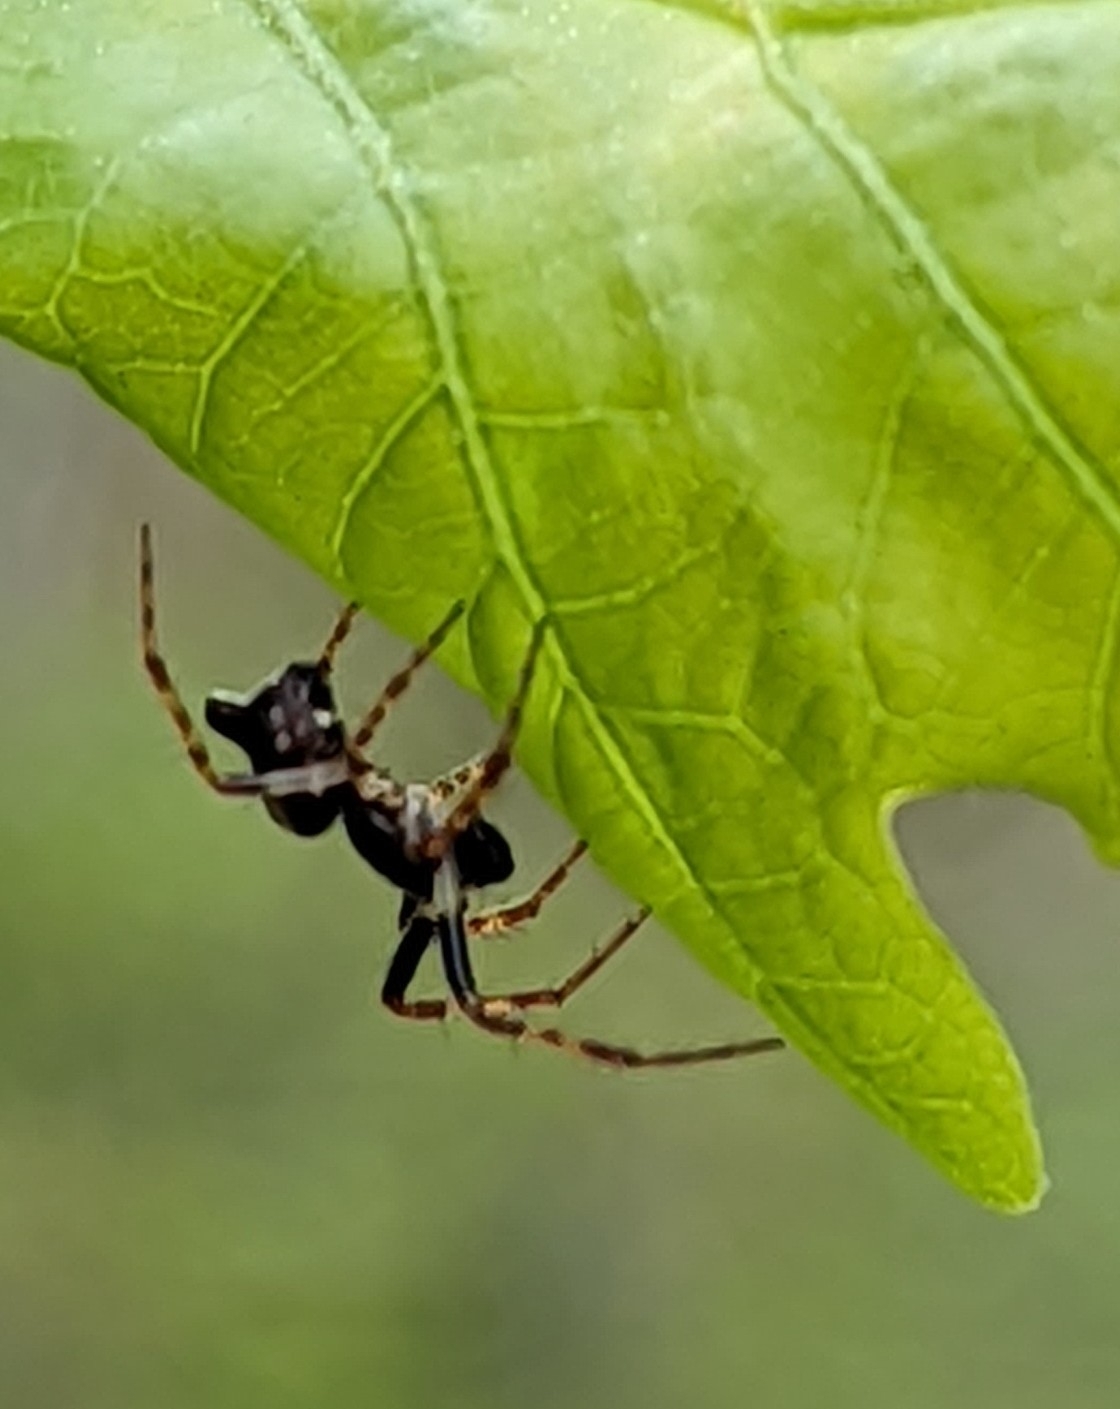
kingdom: Animalia
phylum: Arthropoda
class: Arachnida
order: Araneae
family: Araneidae
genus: Cyclosa
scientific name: Cyclosa conica
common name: Conical trashline orbweaver
